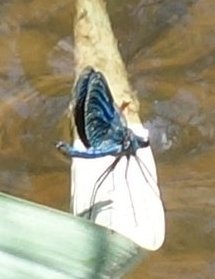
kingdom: Animalia
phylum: Arthropoda
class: Insecta
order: Odonata
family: Calopterygidae
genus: Calopteryx
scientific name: Calopteryx splendens
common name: Banded demoiselle
